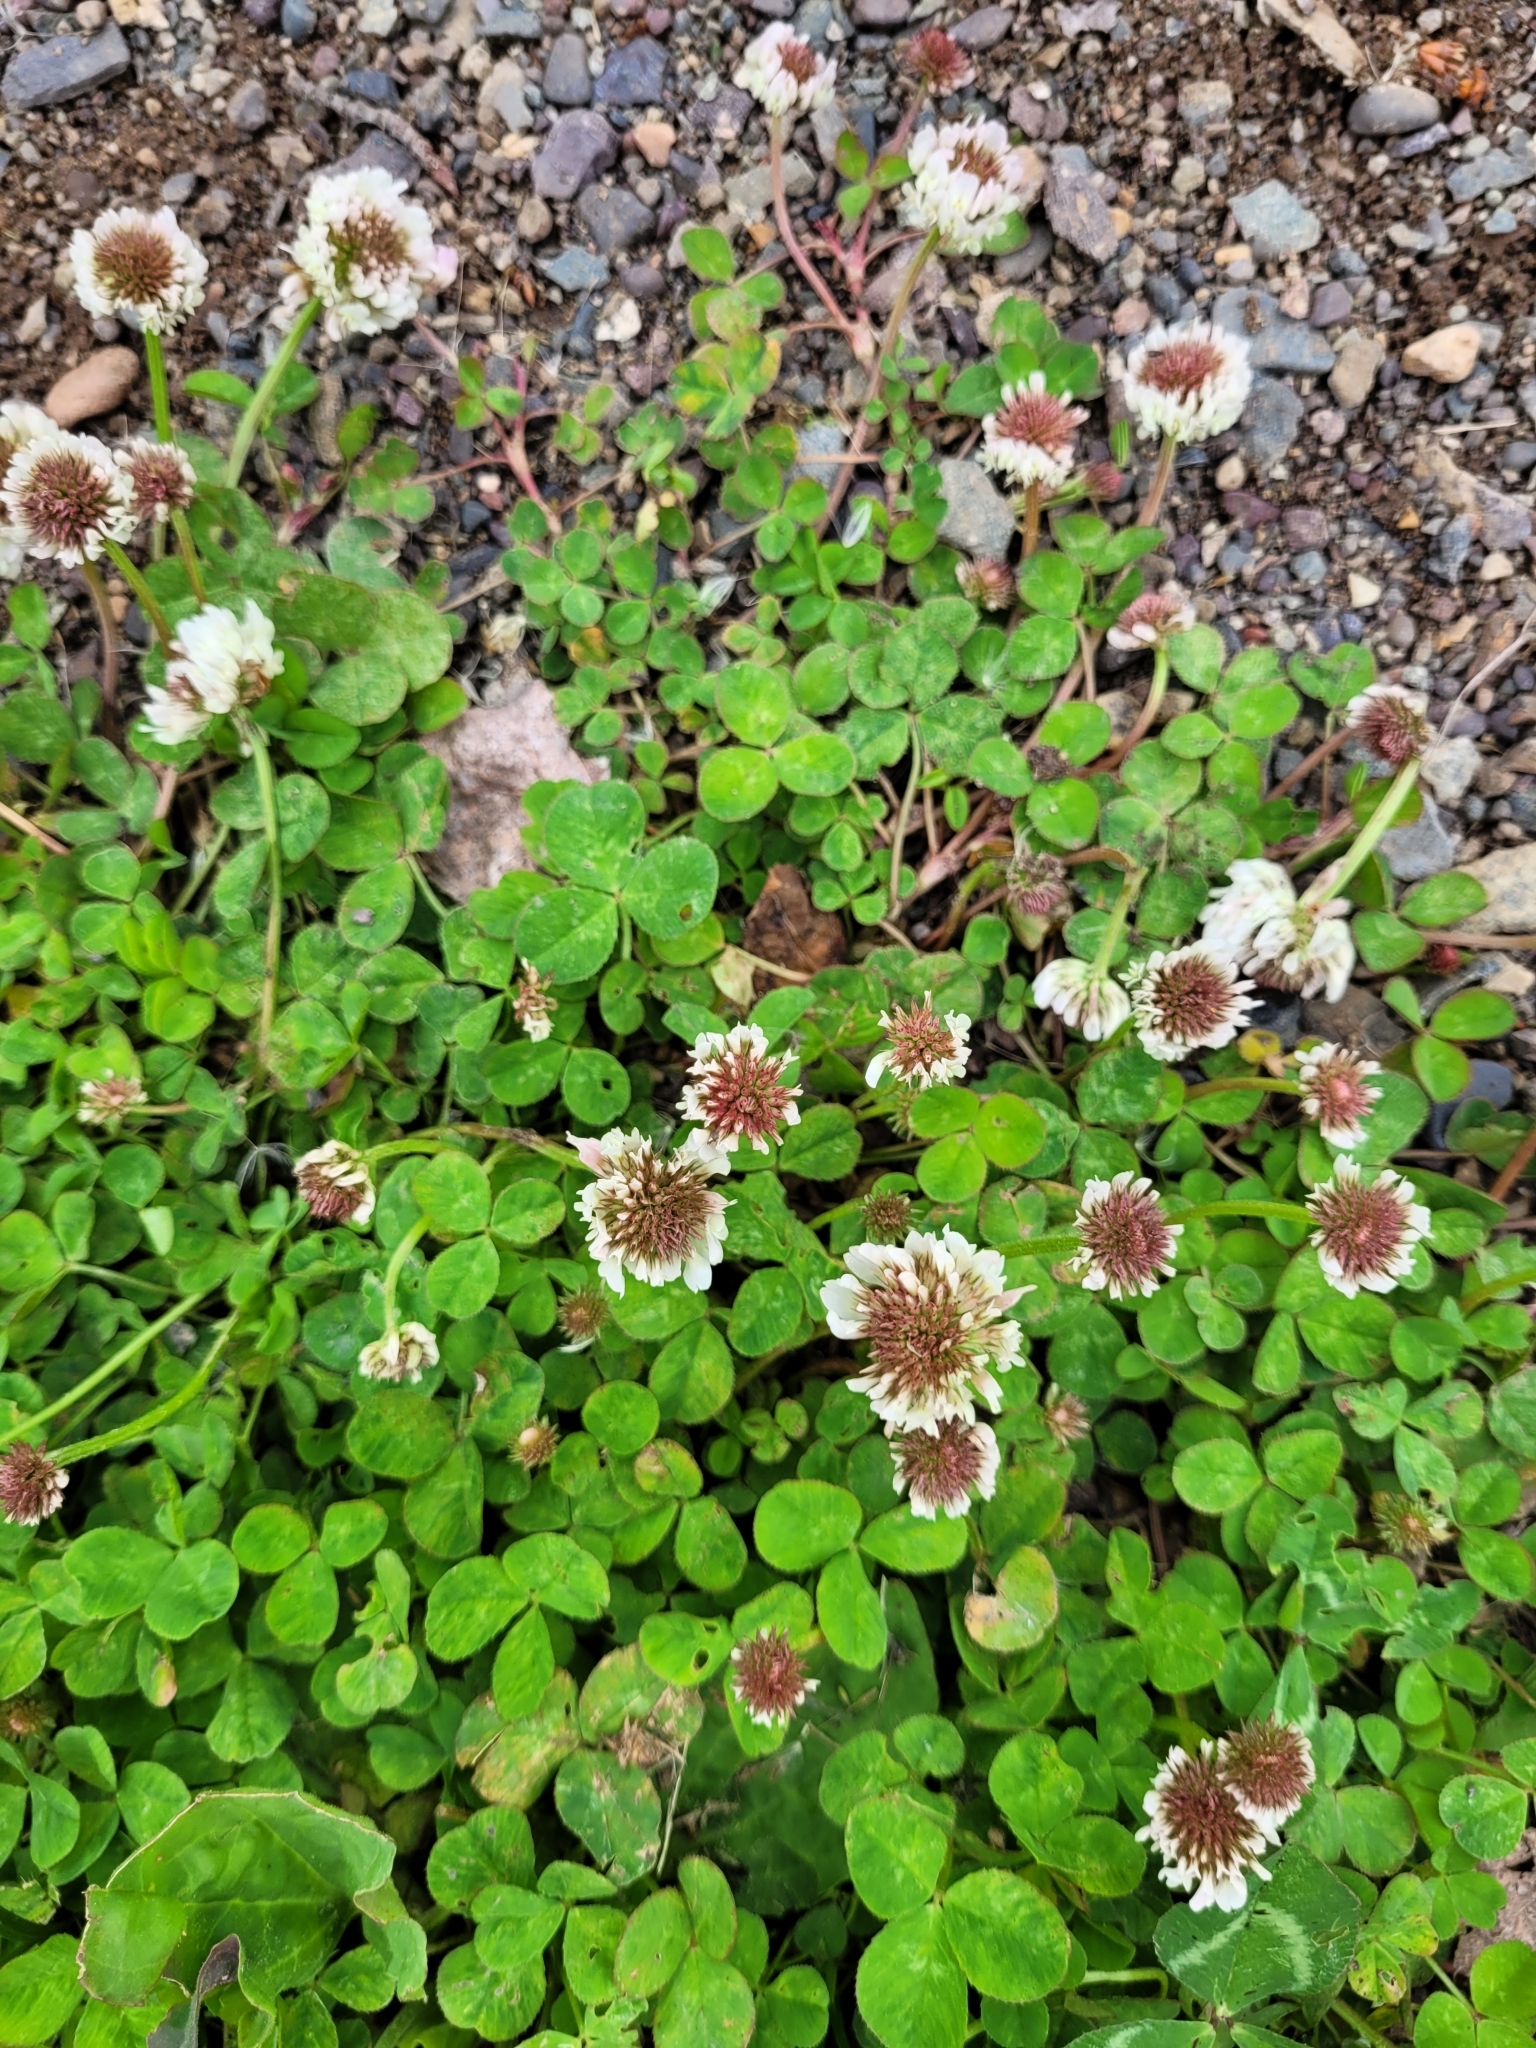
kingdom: Plantae
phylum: Tracheophyta
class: Magnoliopsida
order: Fabales
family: Fabaceae
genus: Trifolium
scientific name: Trifolium repens
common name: White clover
